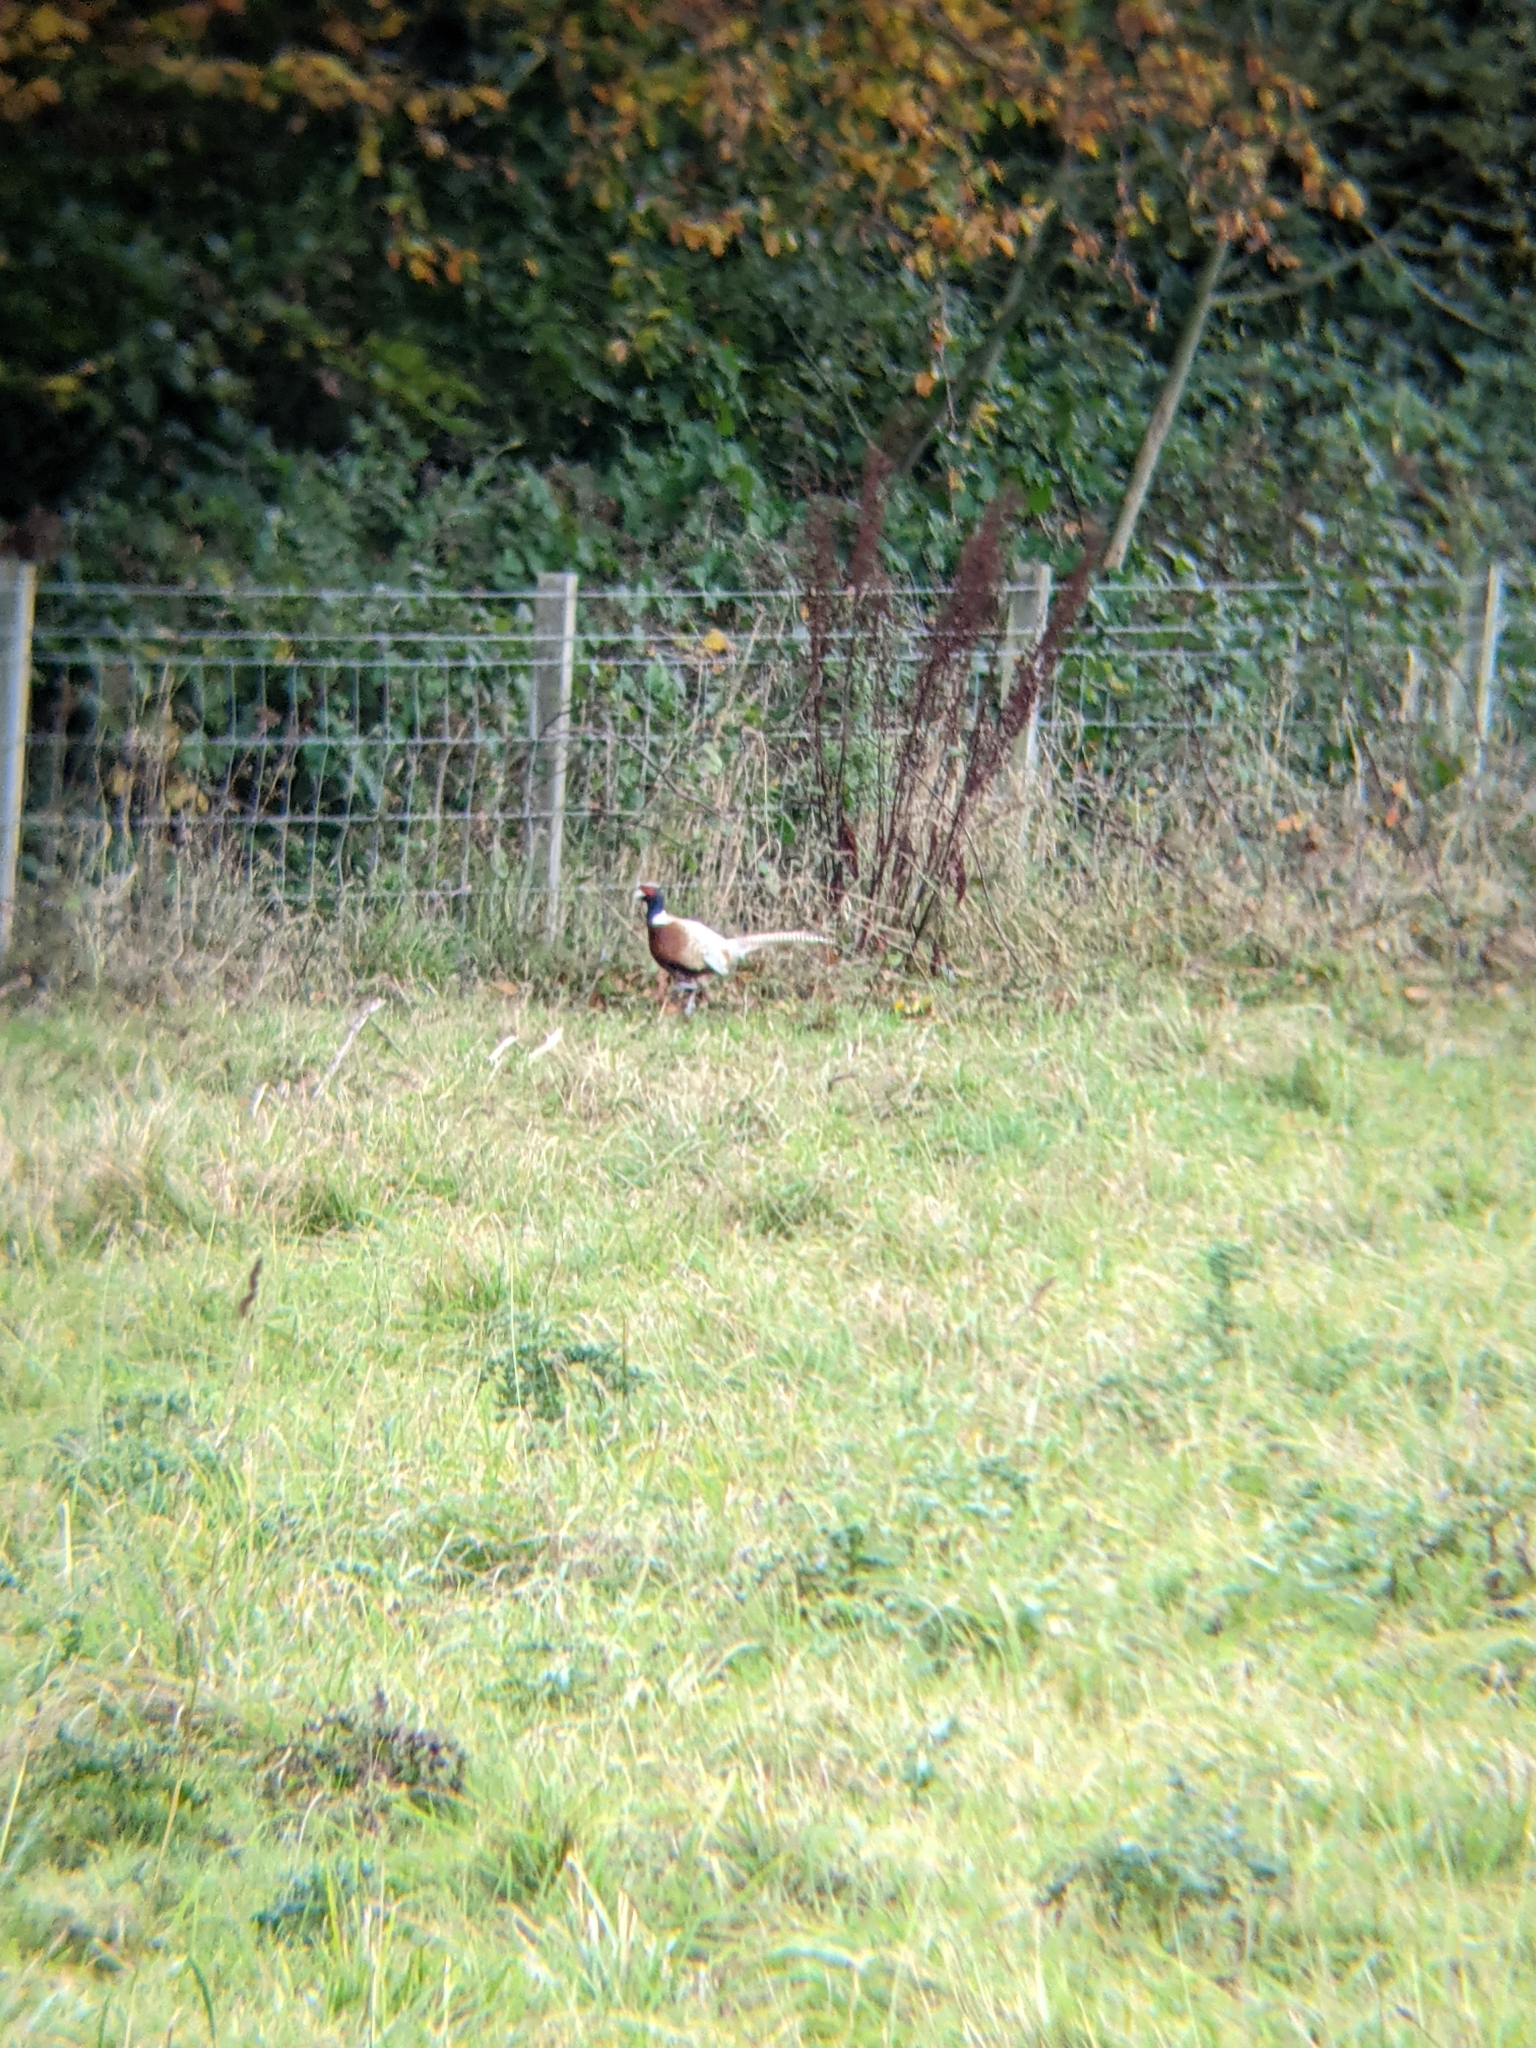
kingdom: Animalia
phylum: Chordata
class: Aves
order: Galliformes
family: Phasianidae
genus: Phasianus
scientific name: Phasianus colchicus
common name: Common pheasant
